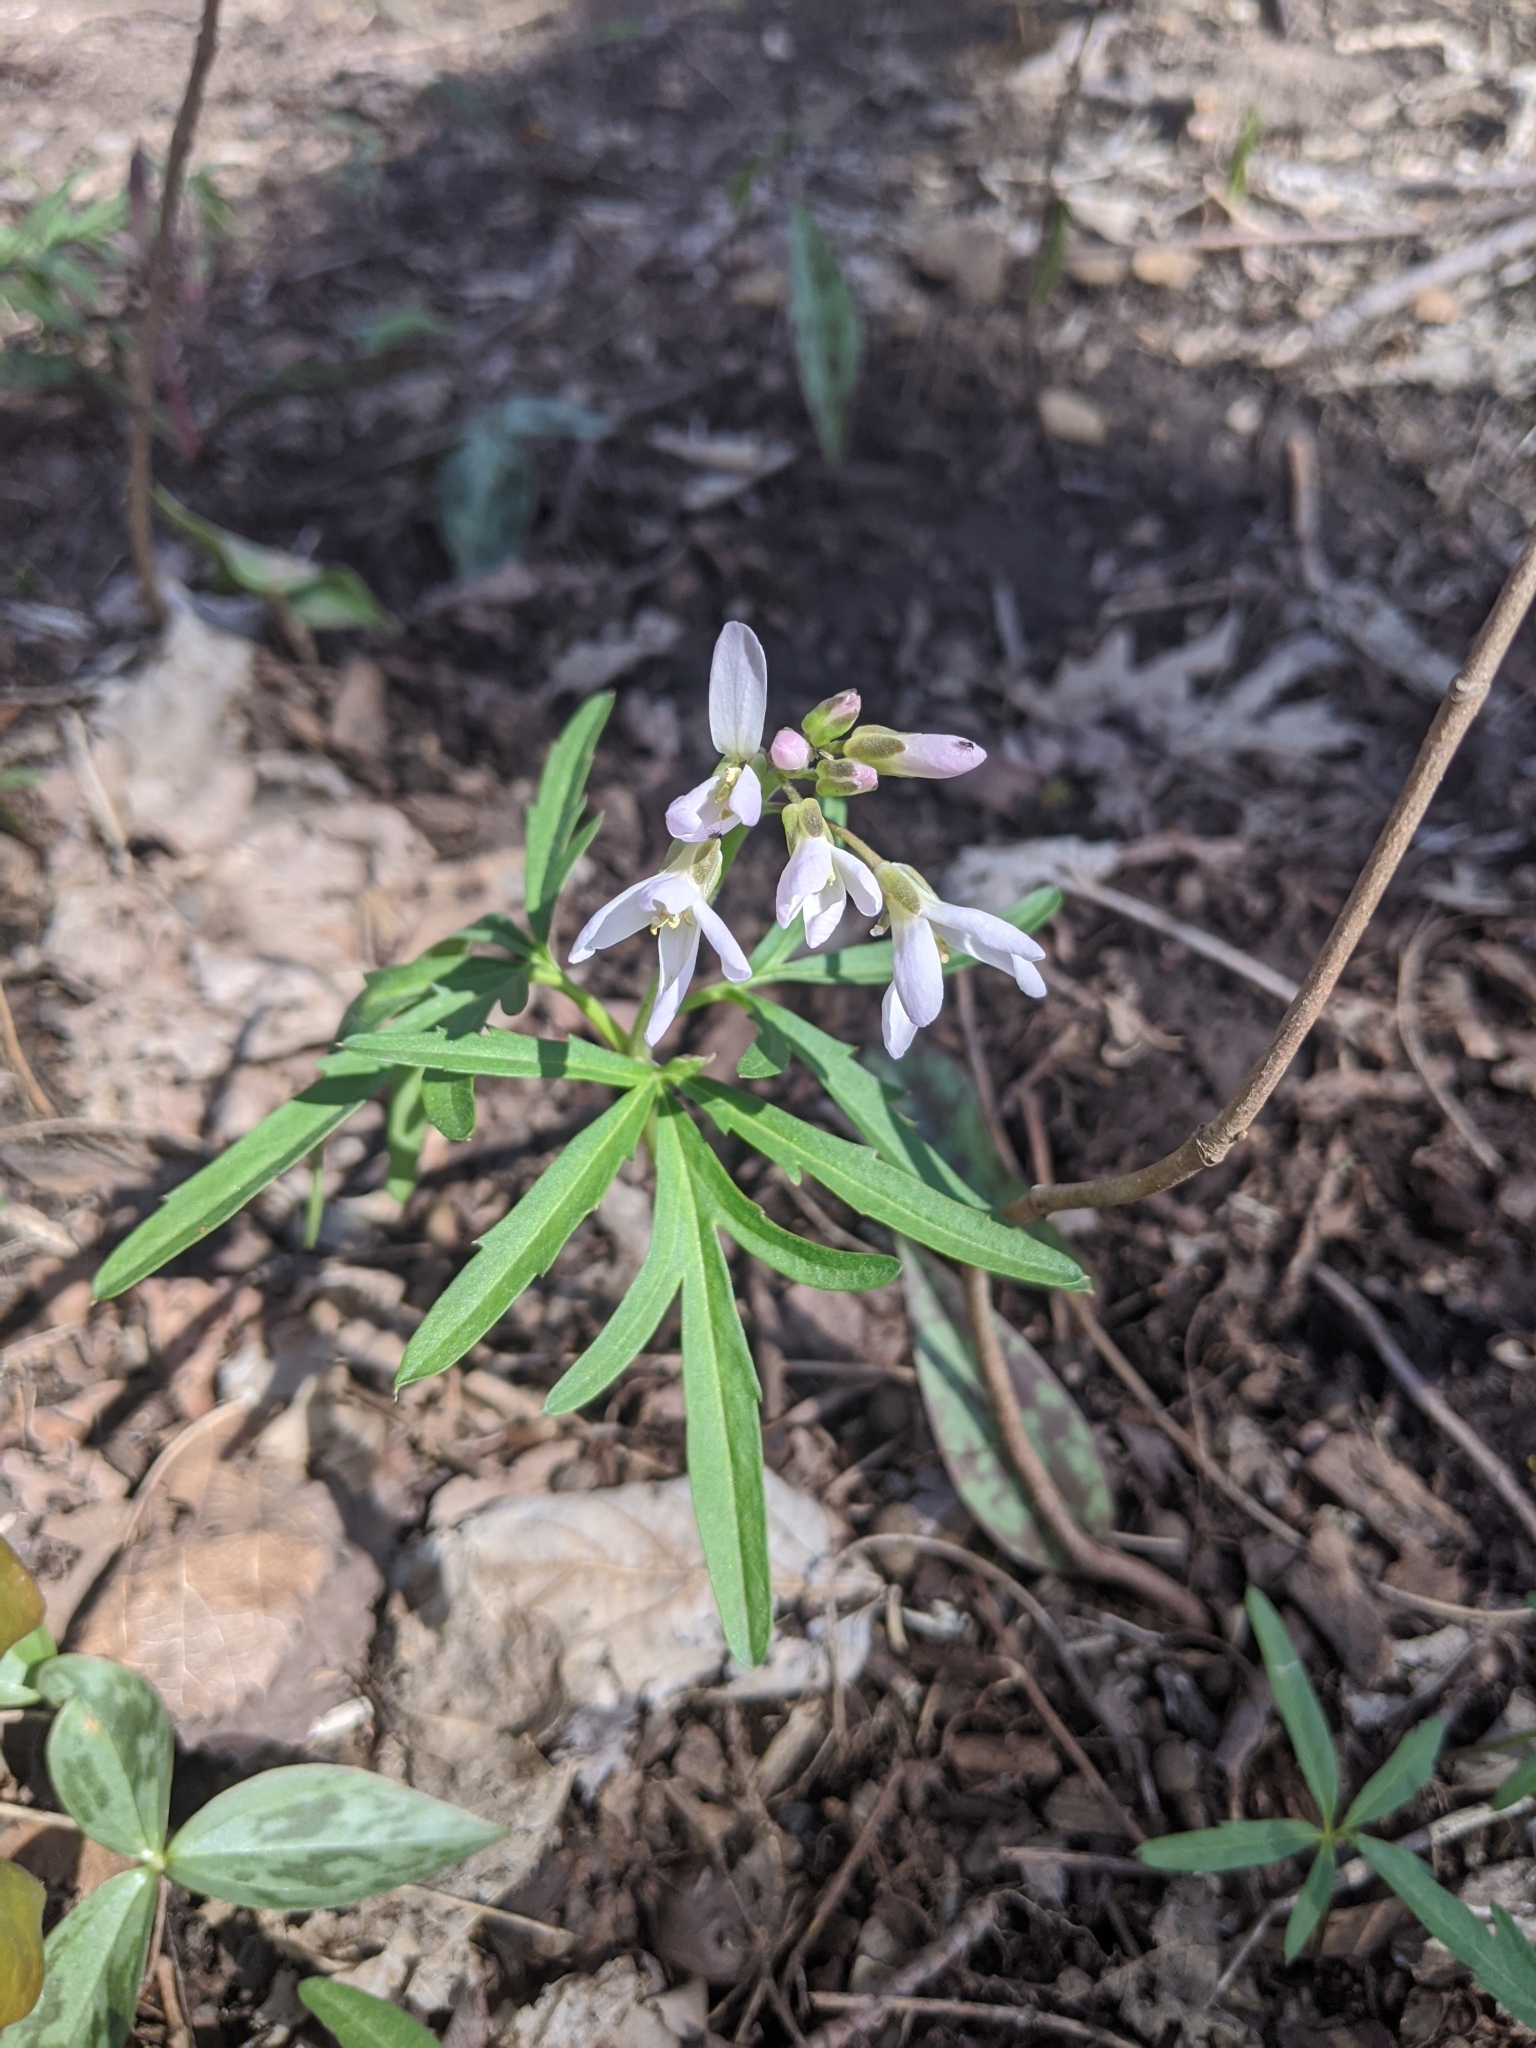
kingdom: Plantae
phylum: Tracheophyta
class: Magnoliopsida
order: Brassicales
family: Brassicaceae
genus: Cardamine
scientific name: Cardamine concatenata
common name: Cut-leaf toothcup
